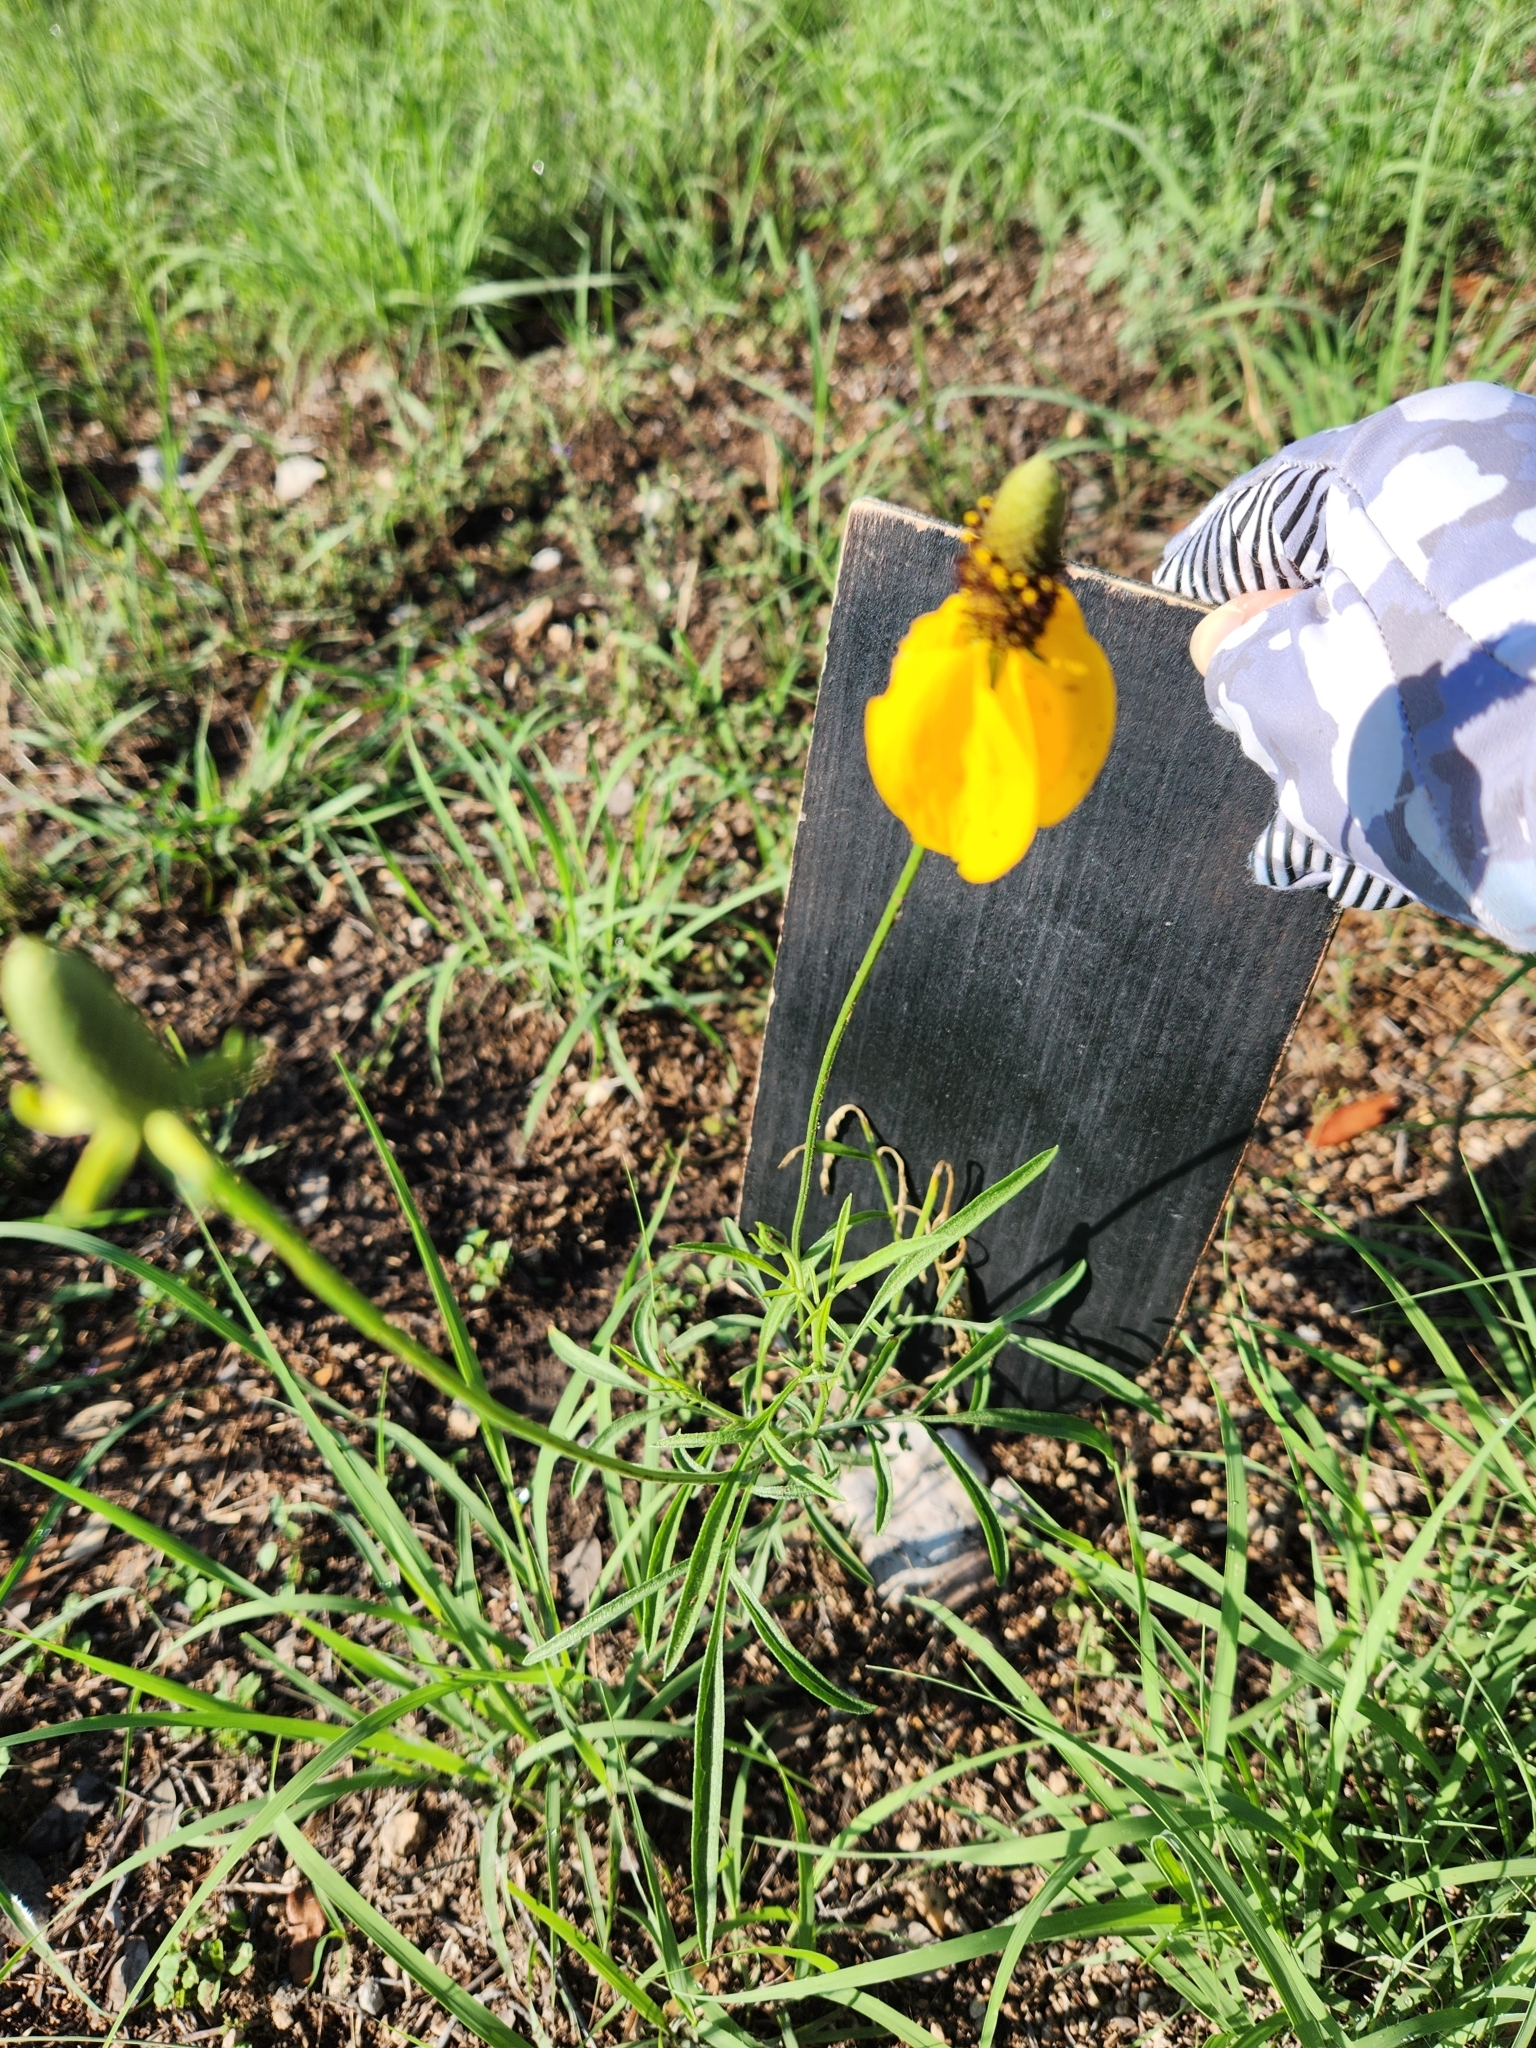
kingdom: Plantae
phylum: Tracheophyta
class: Magnoliopsida
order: Asterales
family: Asteraceae
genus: Ratibida
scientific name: Ratibida columnifera
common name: Prairie coneflower
